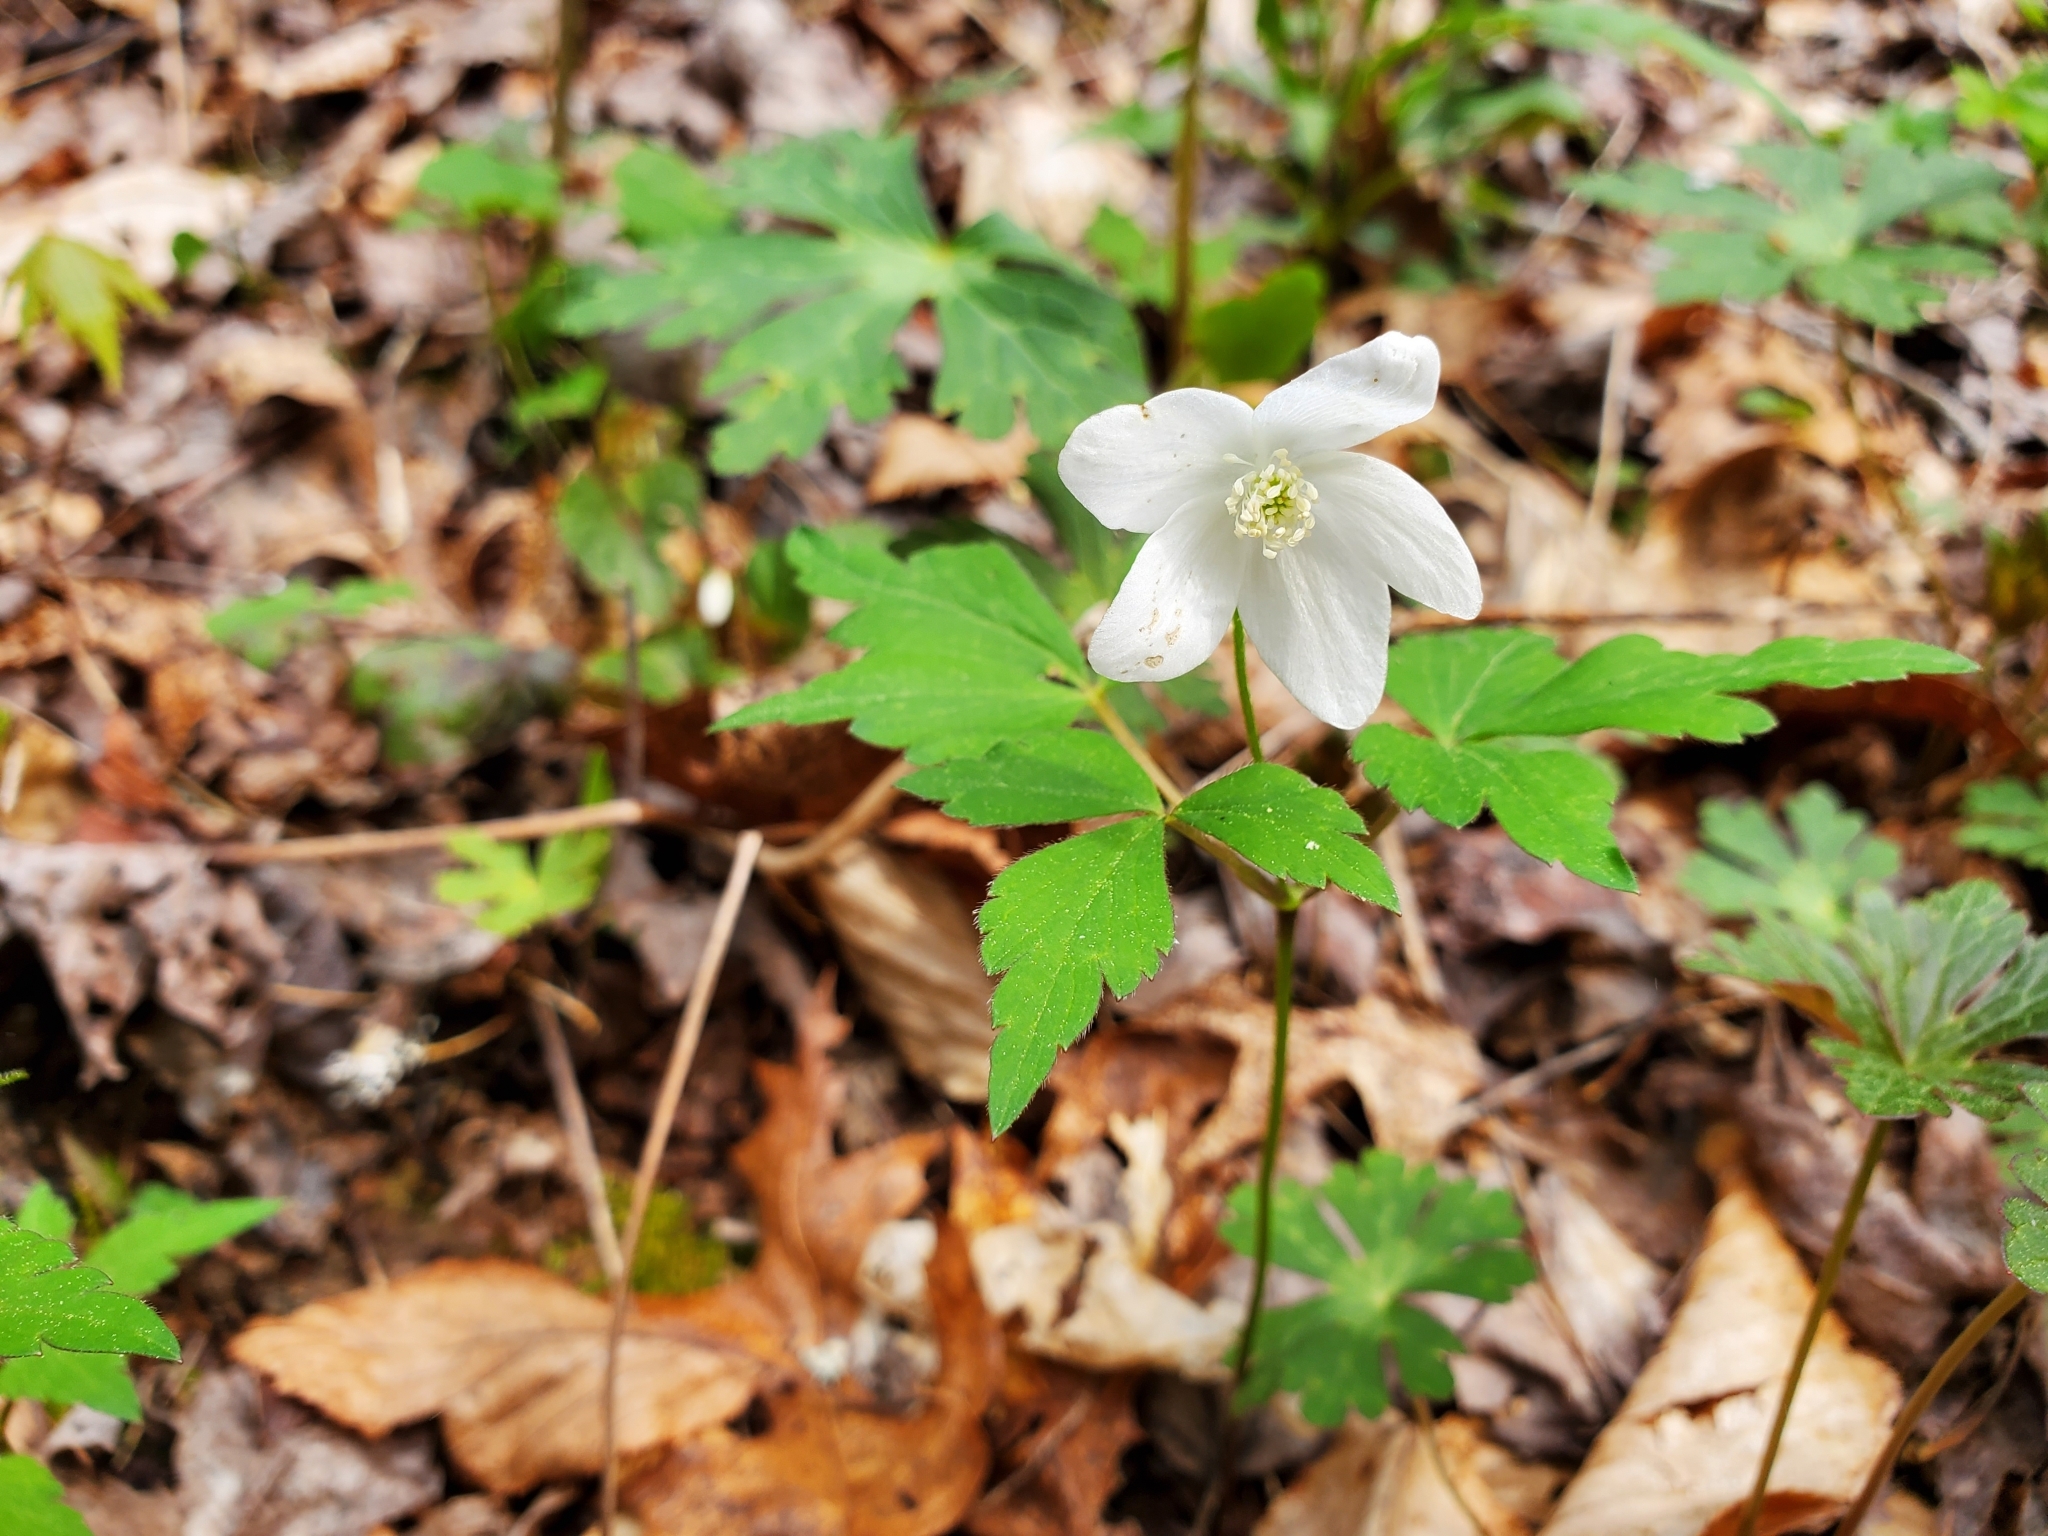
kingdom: Plantae
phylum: Tracheophyta
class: Magnoliopsida
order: Ranunculales
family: Ranunculaceae
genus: Anemone
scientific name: Anemone quinquefolia
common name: Wood anemone
